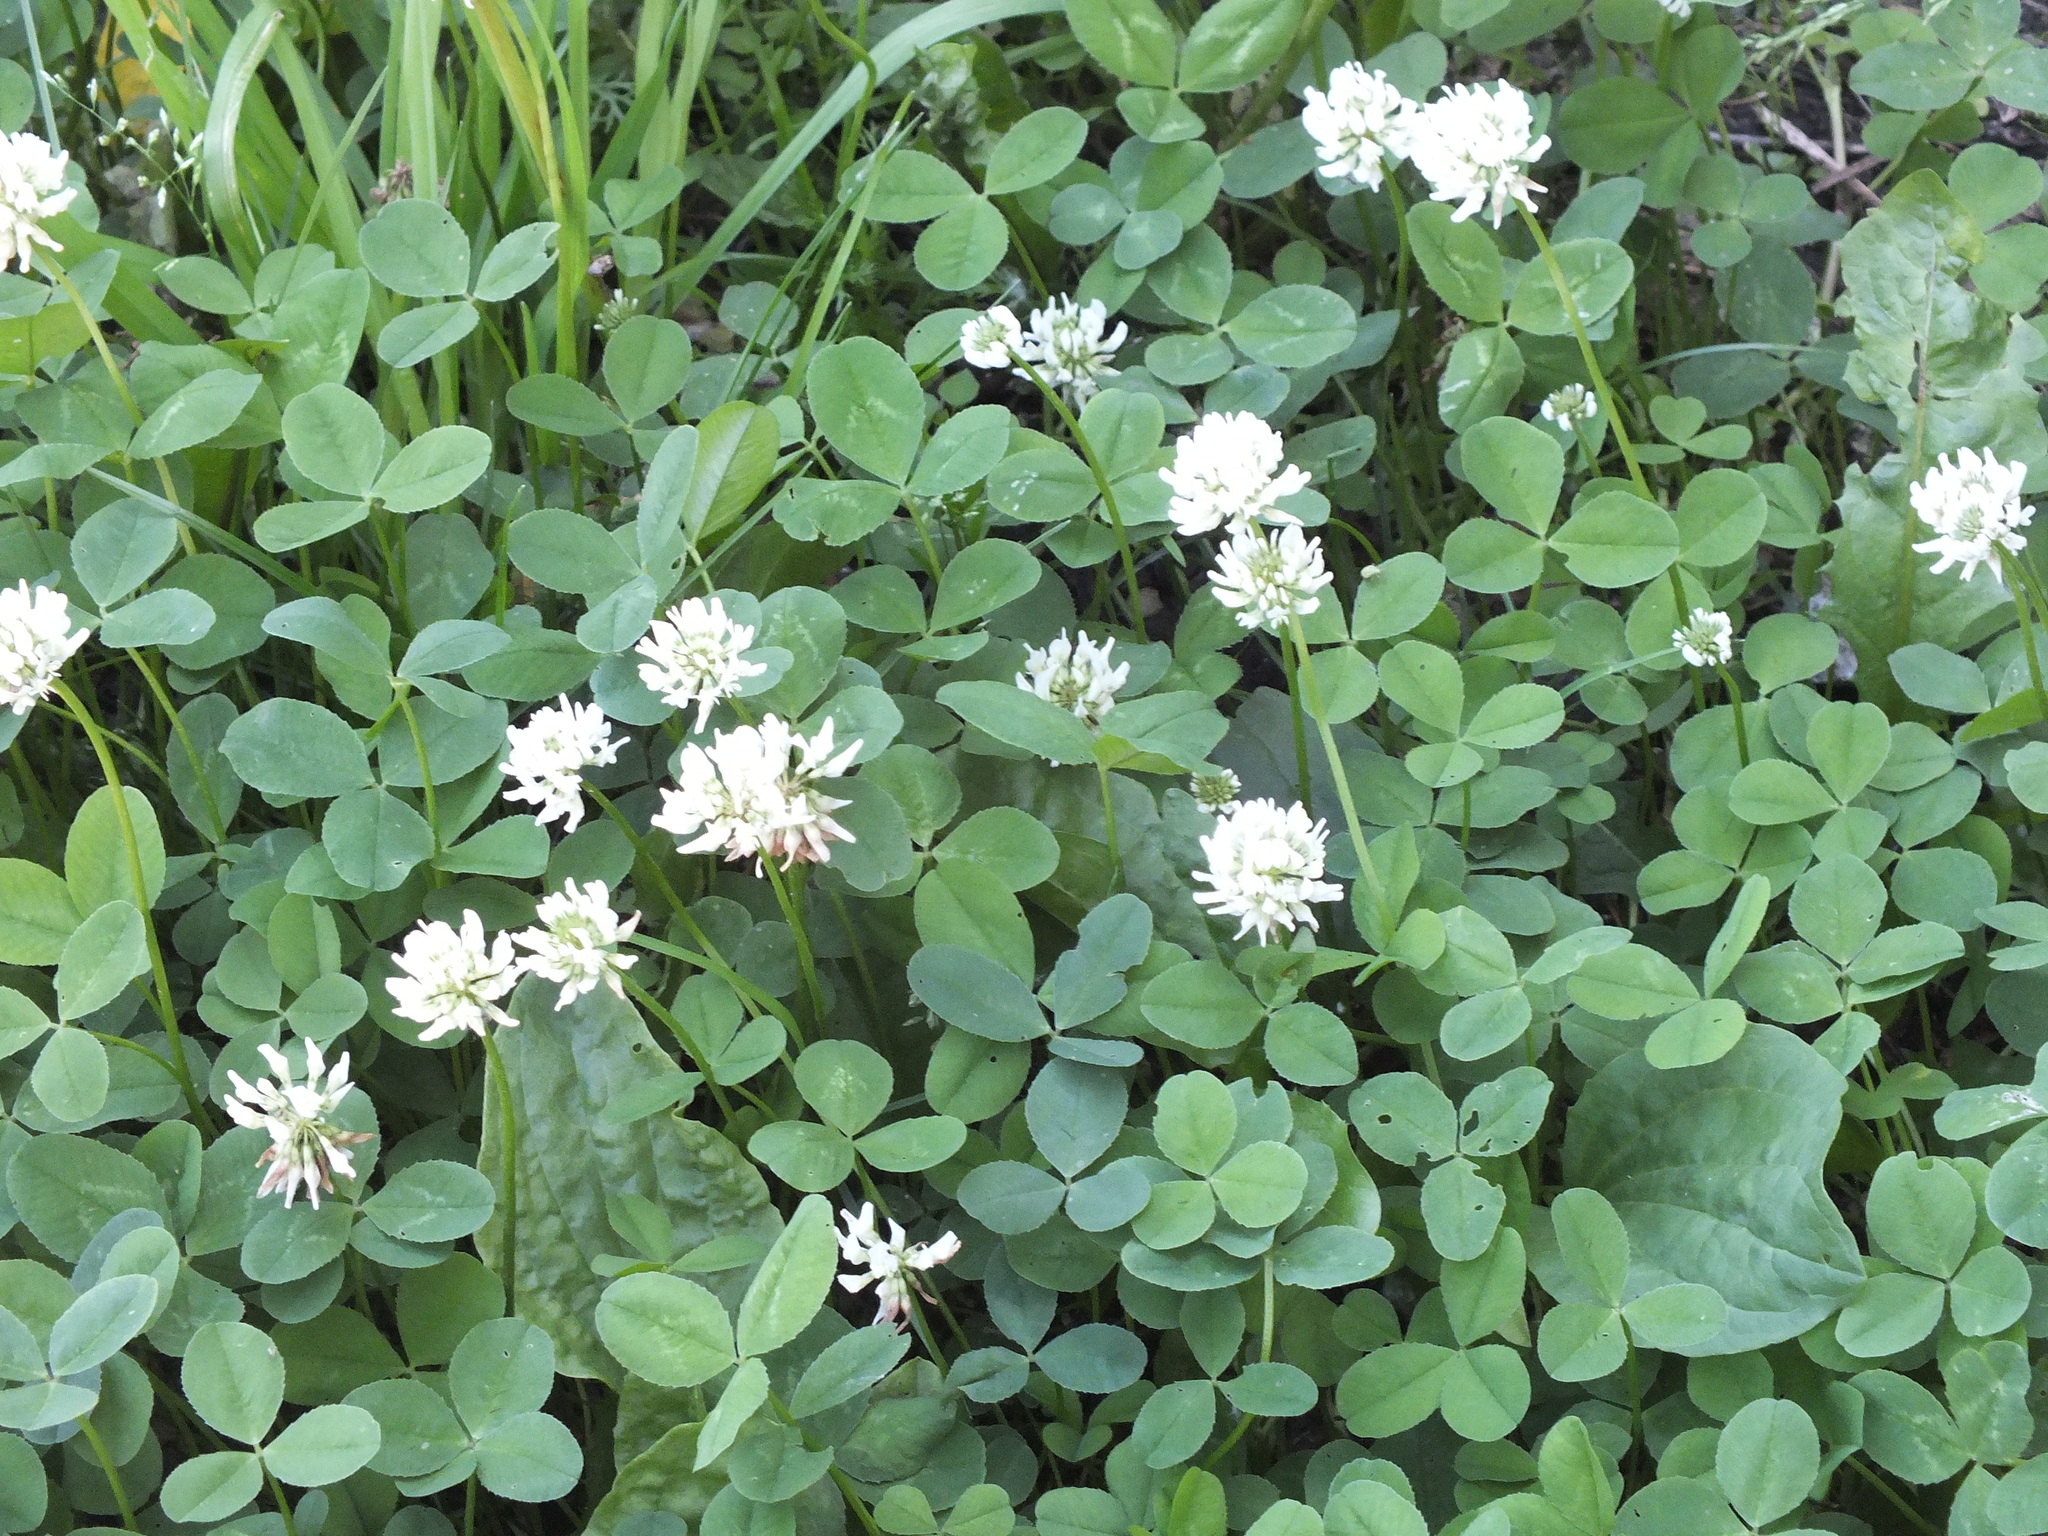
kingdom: Plantae
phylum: Tracheophyta
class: Magnoliopsida
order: Fabales
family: Fabaceae
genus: Trifolium
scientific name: Trifolium repens
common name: White clover
